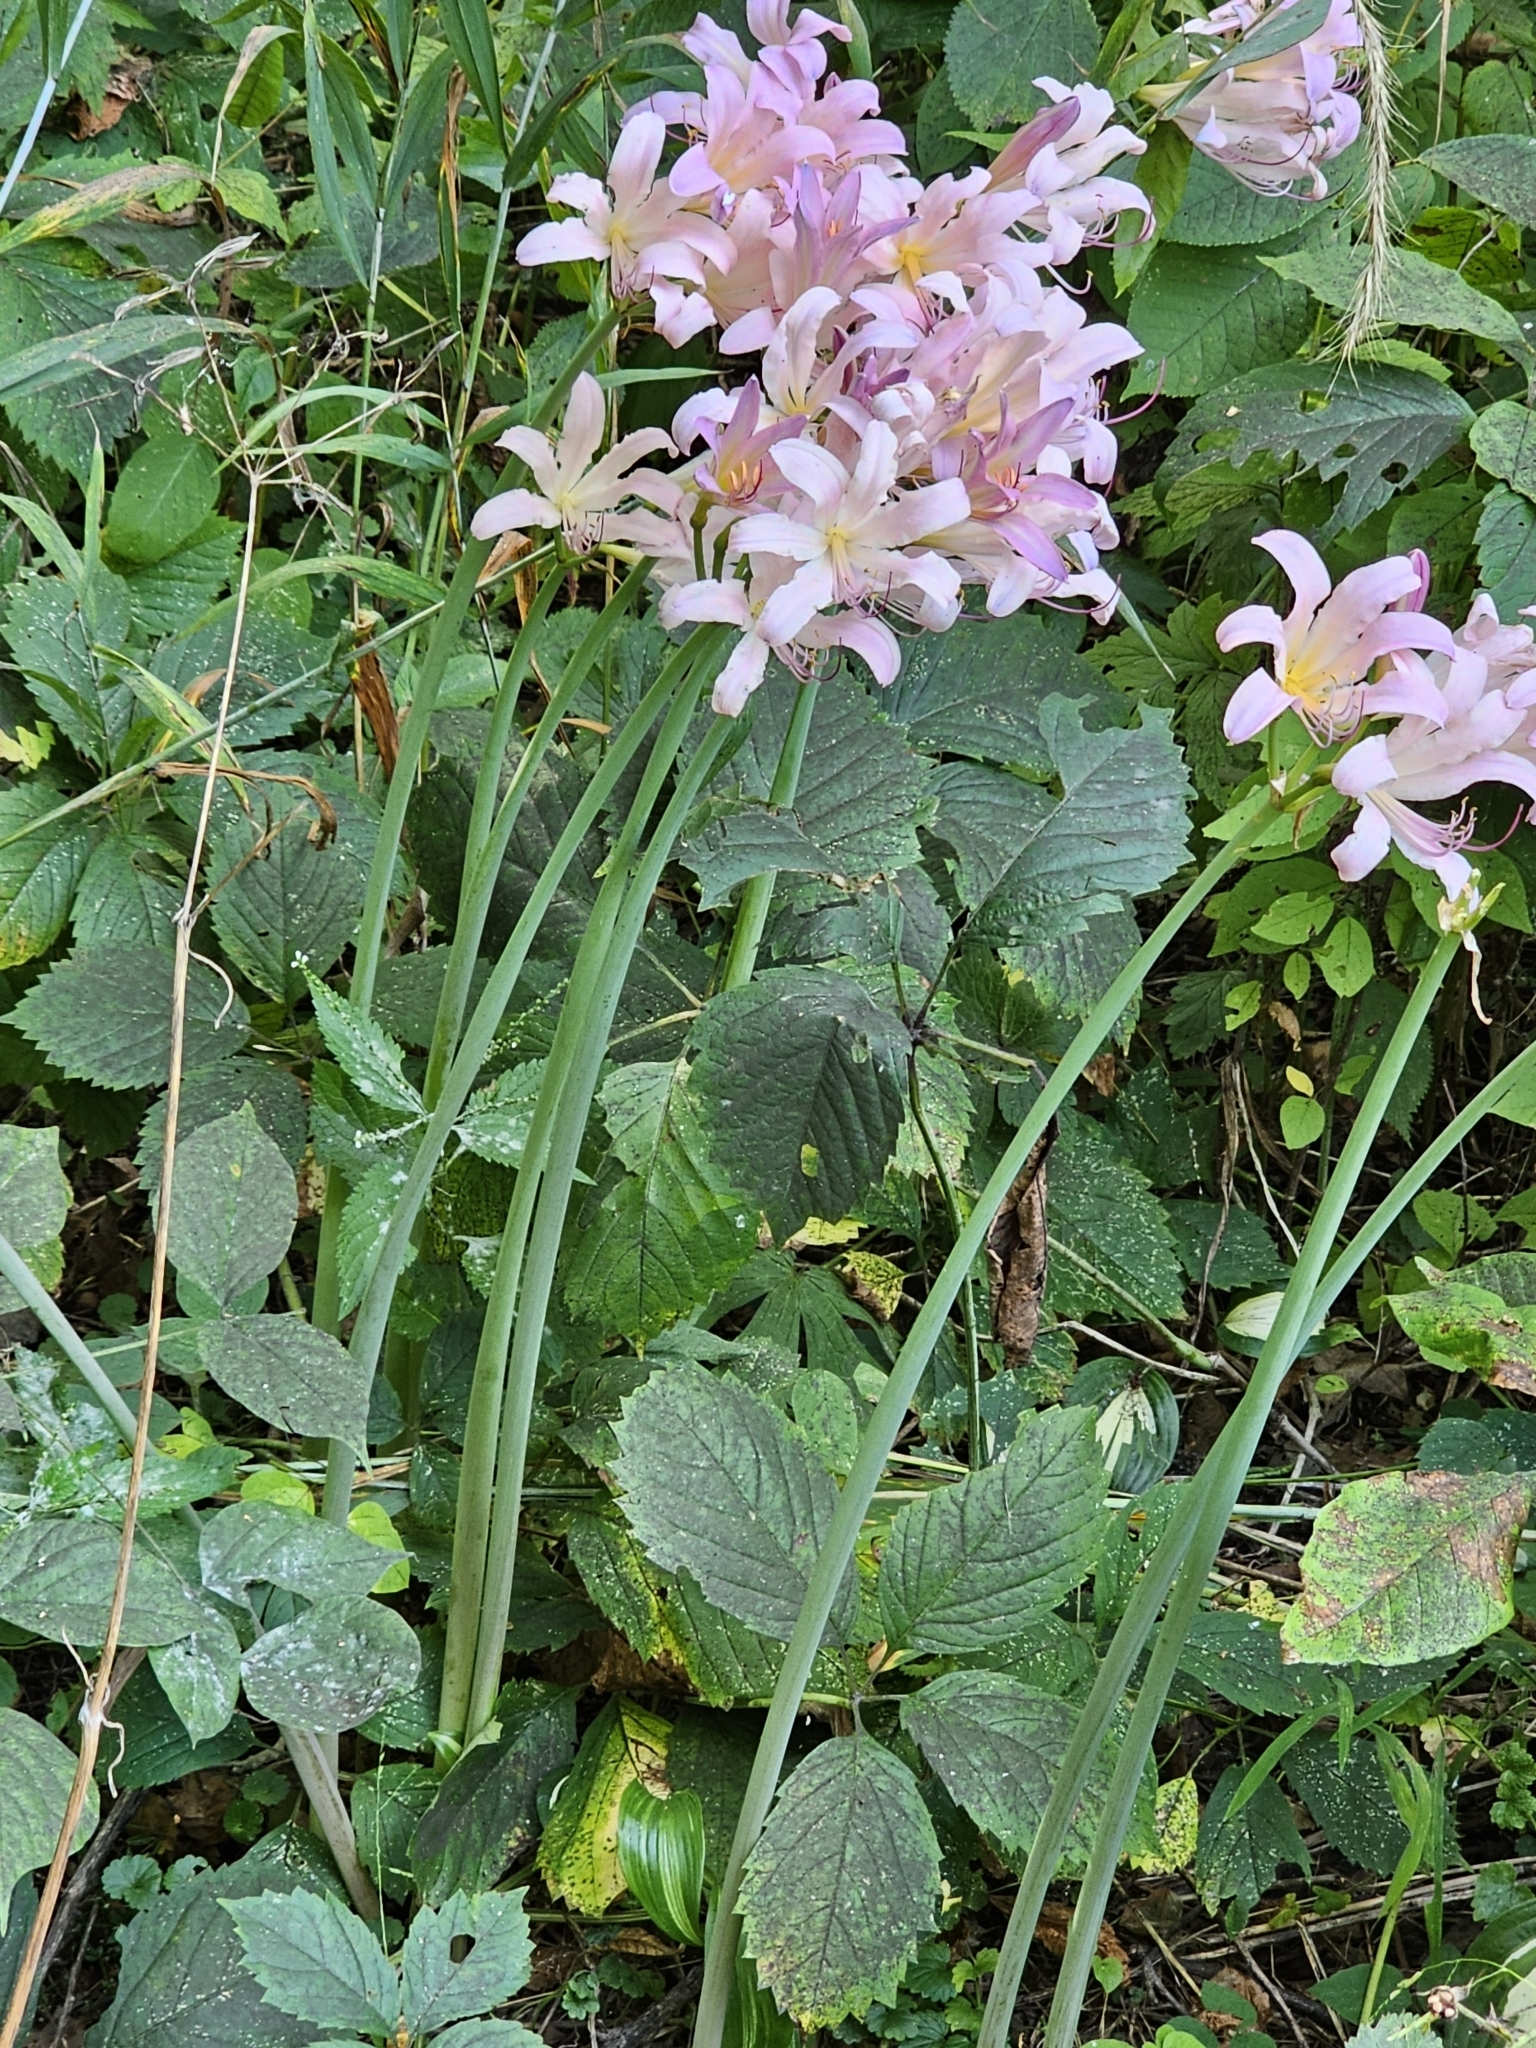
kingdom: Plantae
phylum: Tracheophyta
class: Liliopsida
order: Asparagales
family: Amaryllidaceae
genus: Lycoris
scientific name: Lycoris squamigera
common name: Magic-lily
